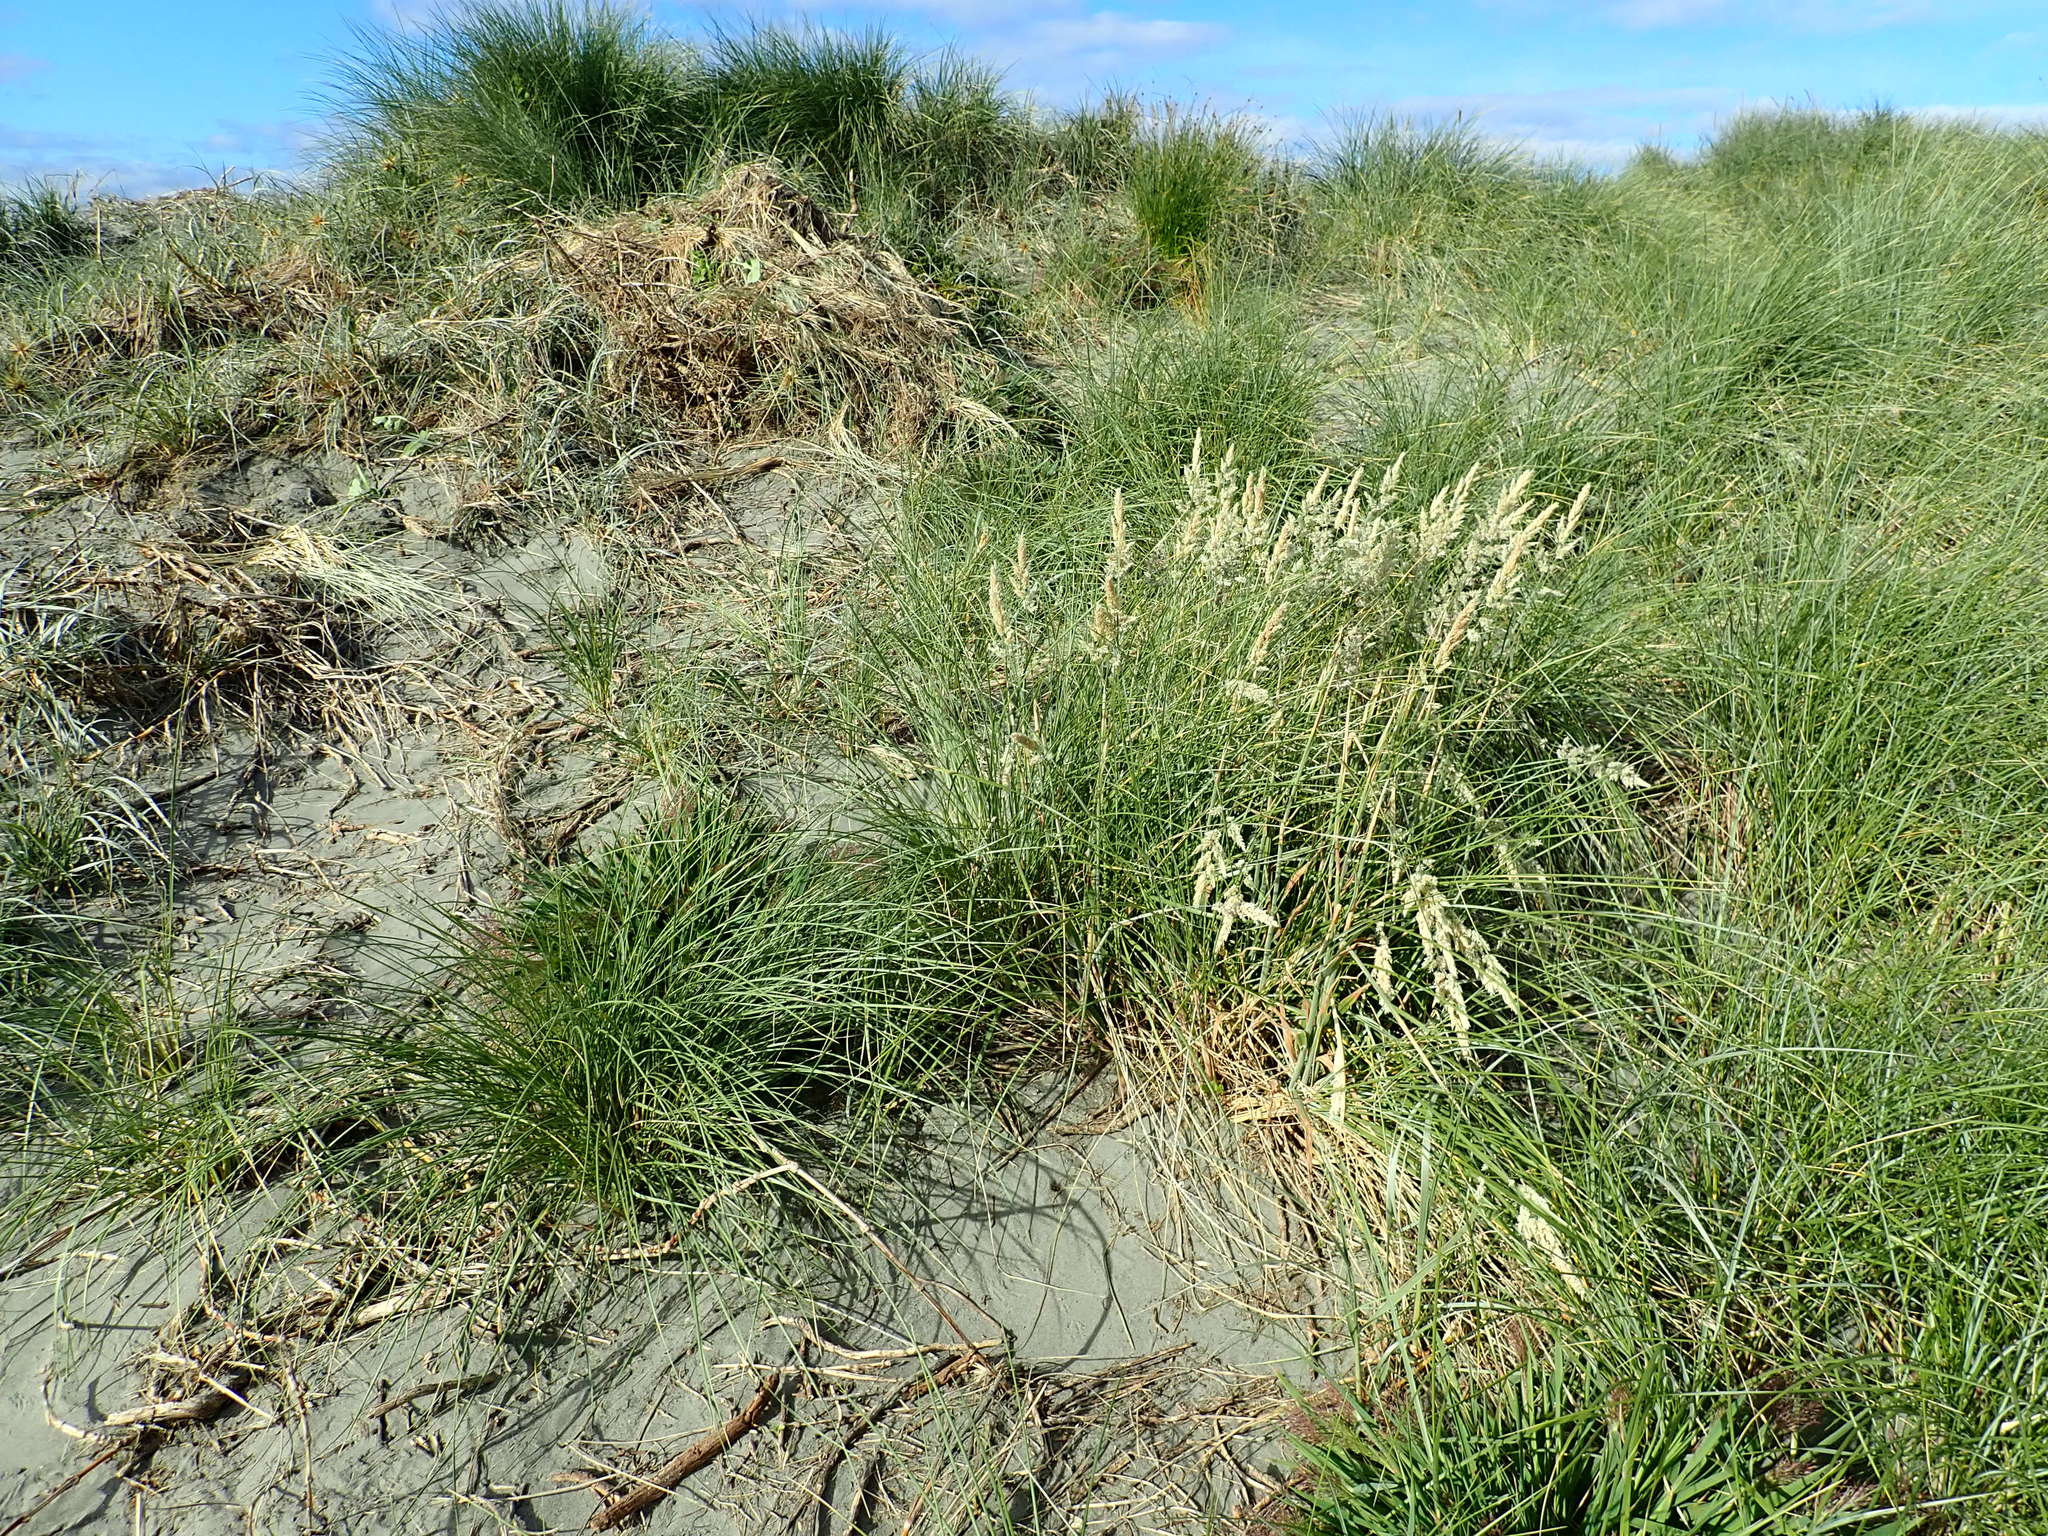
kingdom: Plantae
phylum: Tracheophyta
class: Liliopsida
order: Poales
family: Poaceae
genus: Holcus
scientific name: Holcus lanatus
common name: Yorkshire-fog
